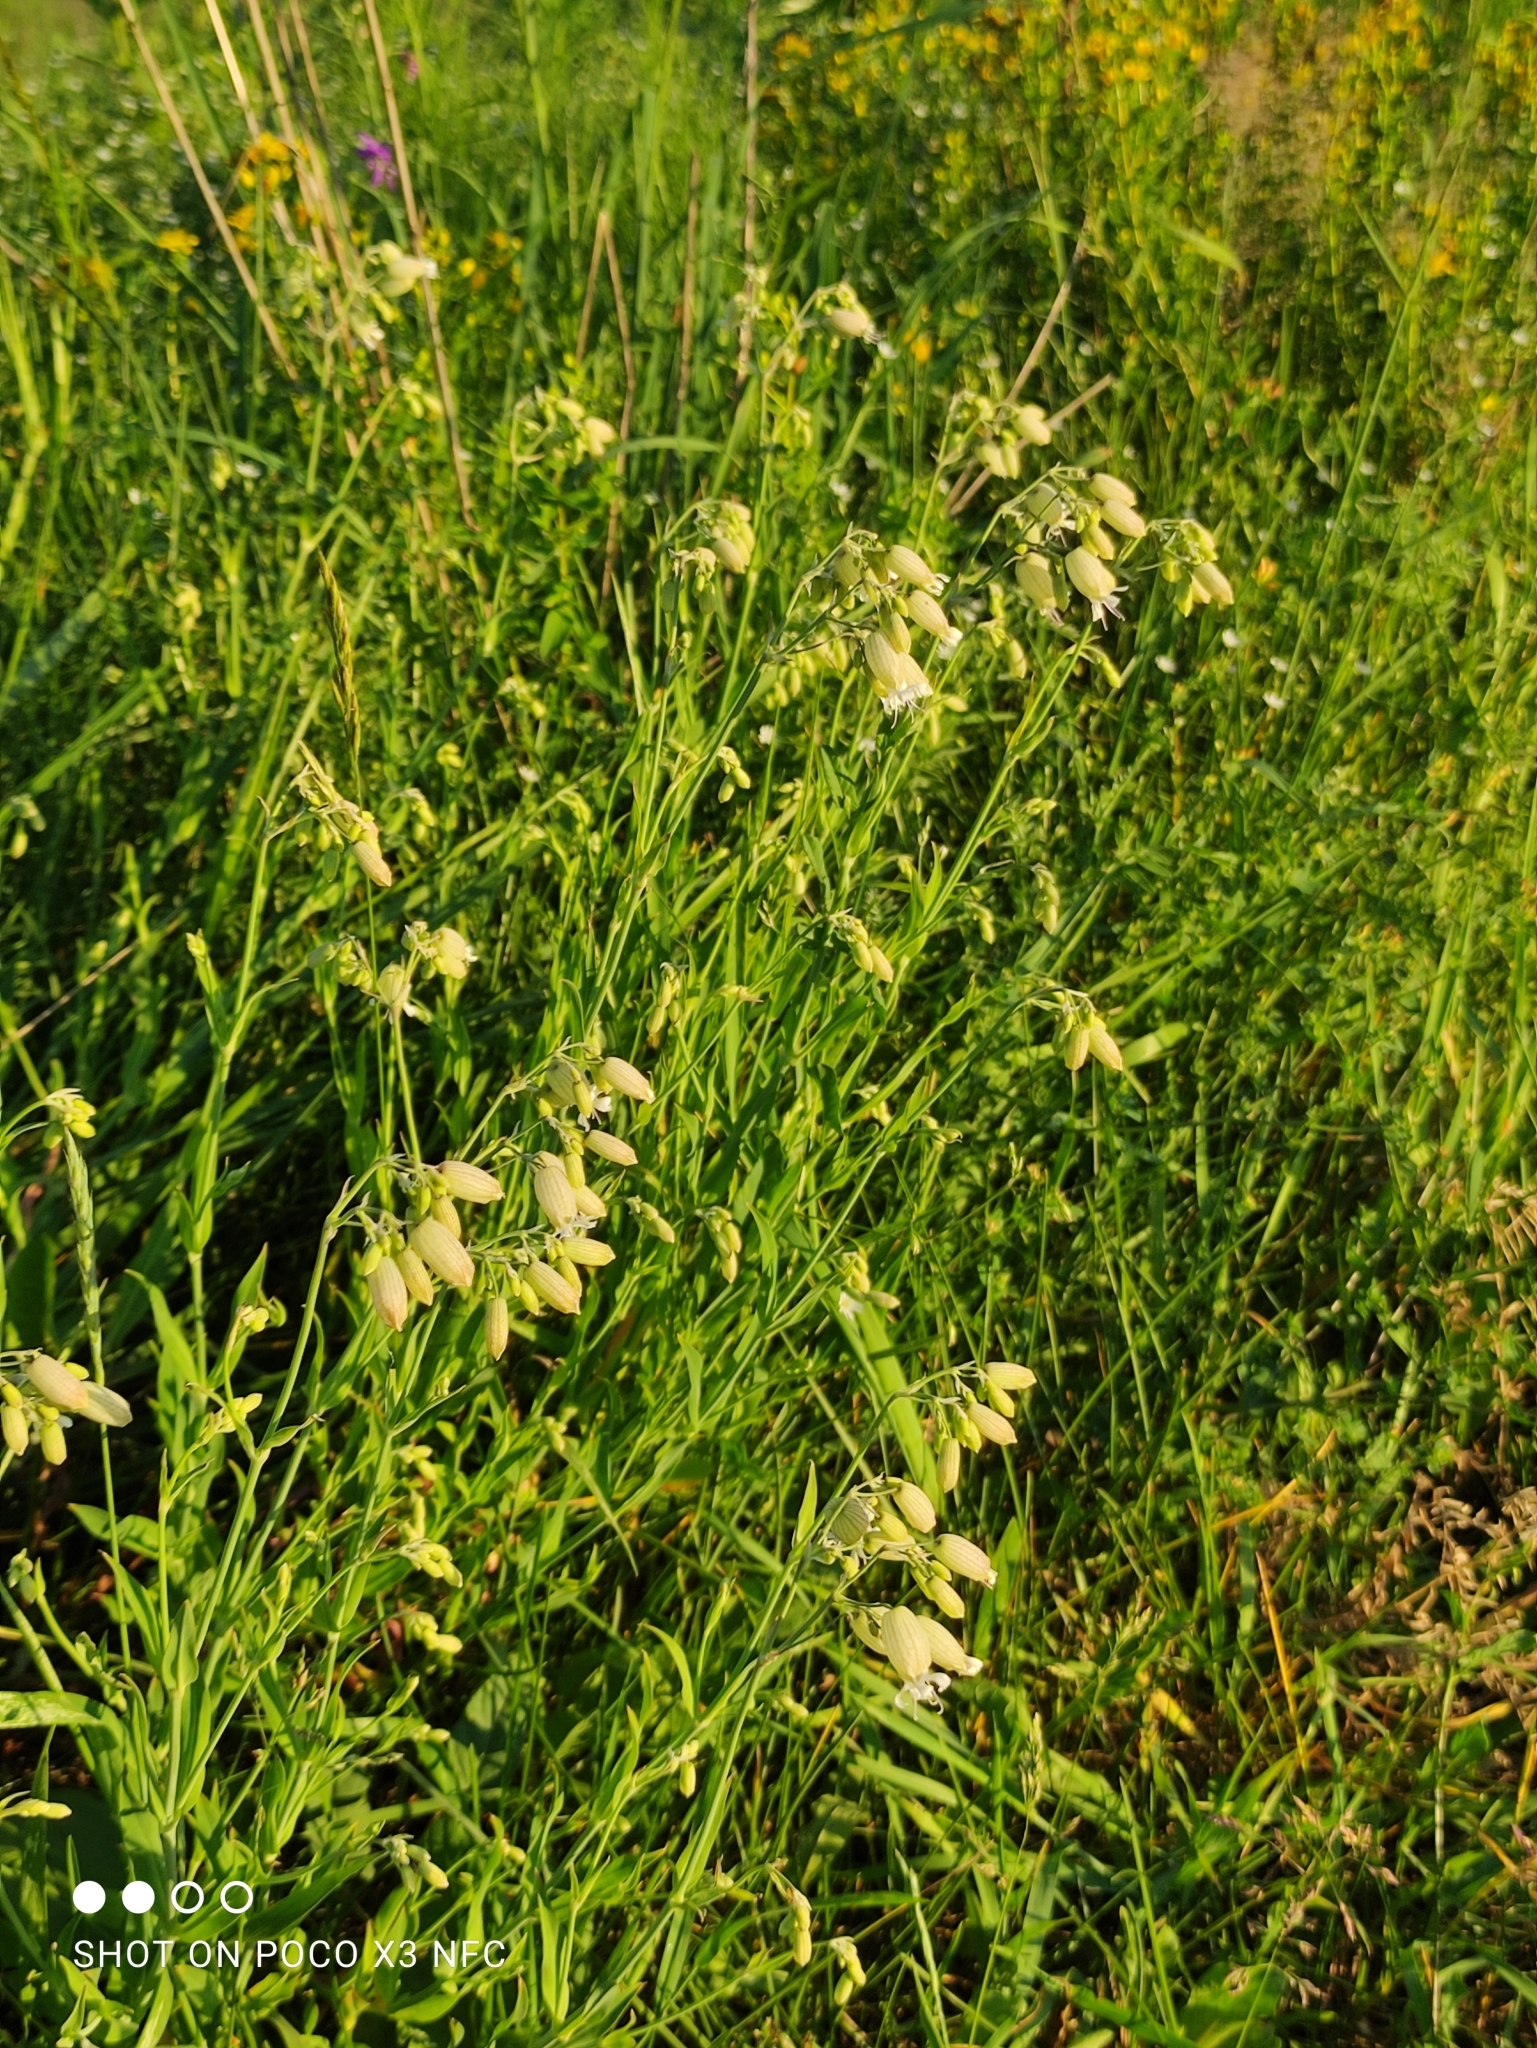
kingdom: Plantae
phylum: Tracheophyta
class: Magnoliopsida
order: Caryophyllales
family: Caryophyllaceae
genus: Silene
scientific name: Silene vulgaris
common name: Bladder campion
